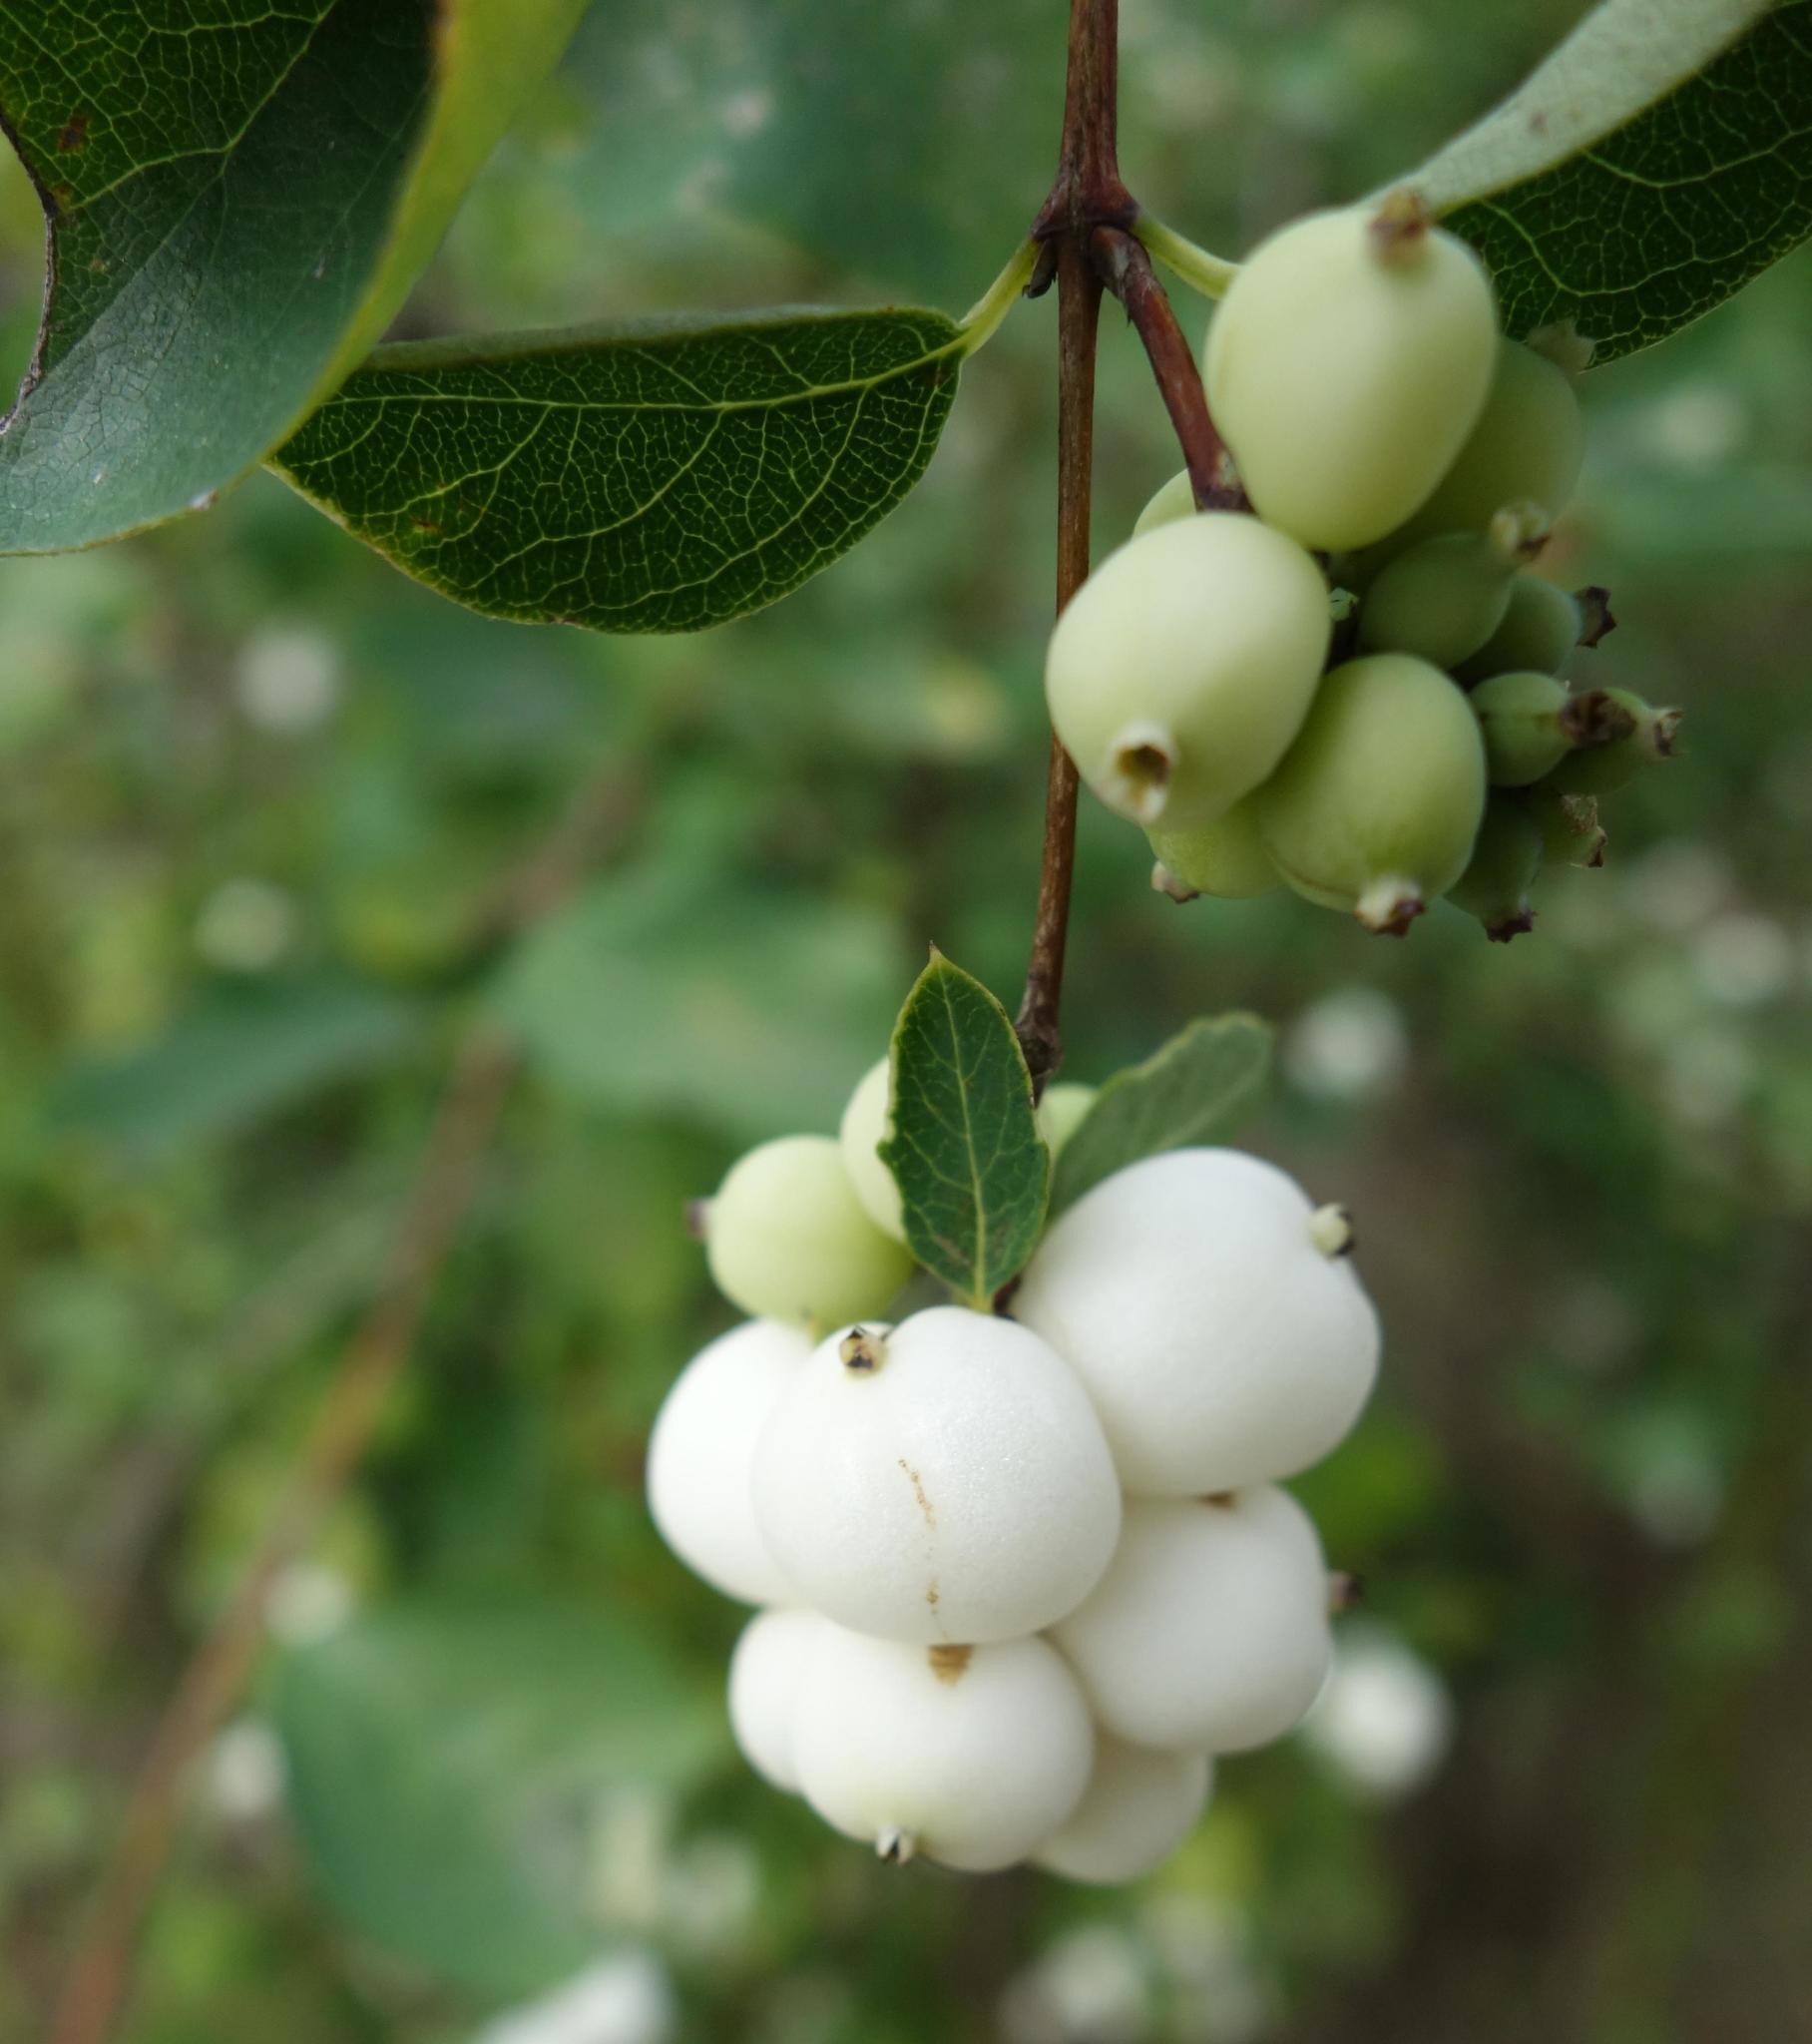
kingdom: Plantae
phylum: Tracheophyta
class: Magnoliopsida
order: Dipsacales
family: Caprifoliaceae
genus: Symphoricarpos
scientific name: Symphoricarpos albus
